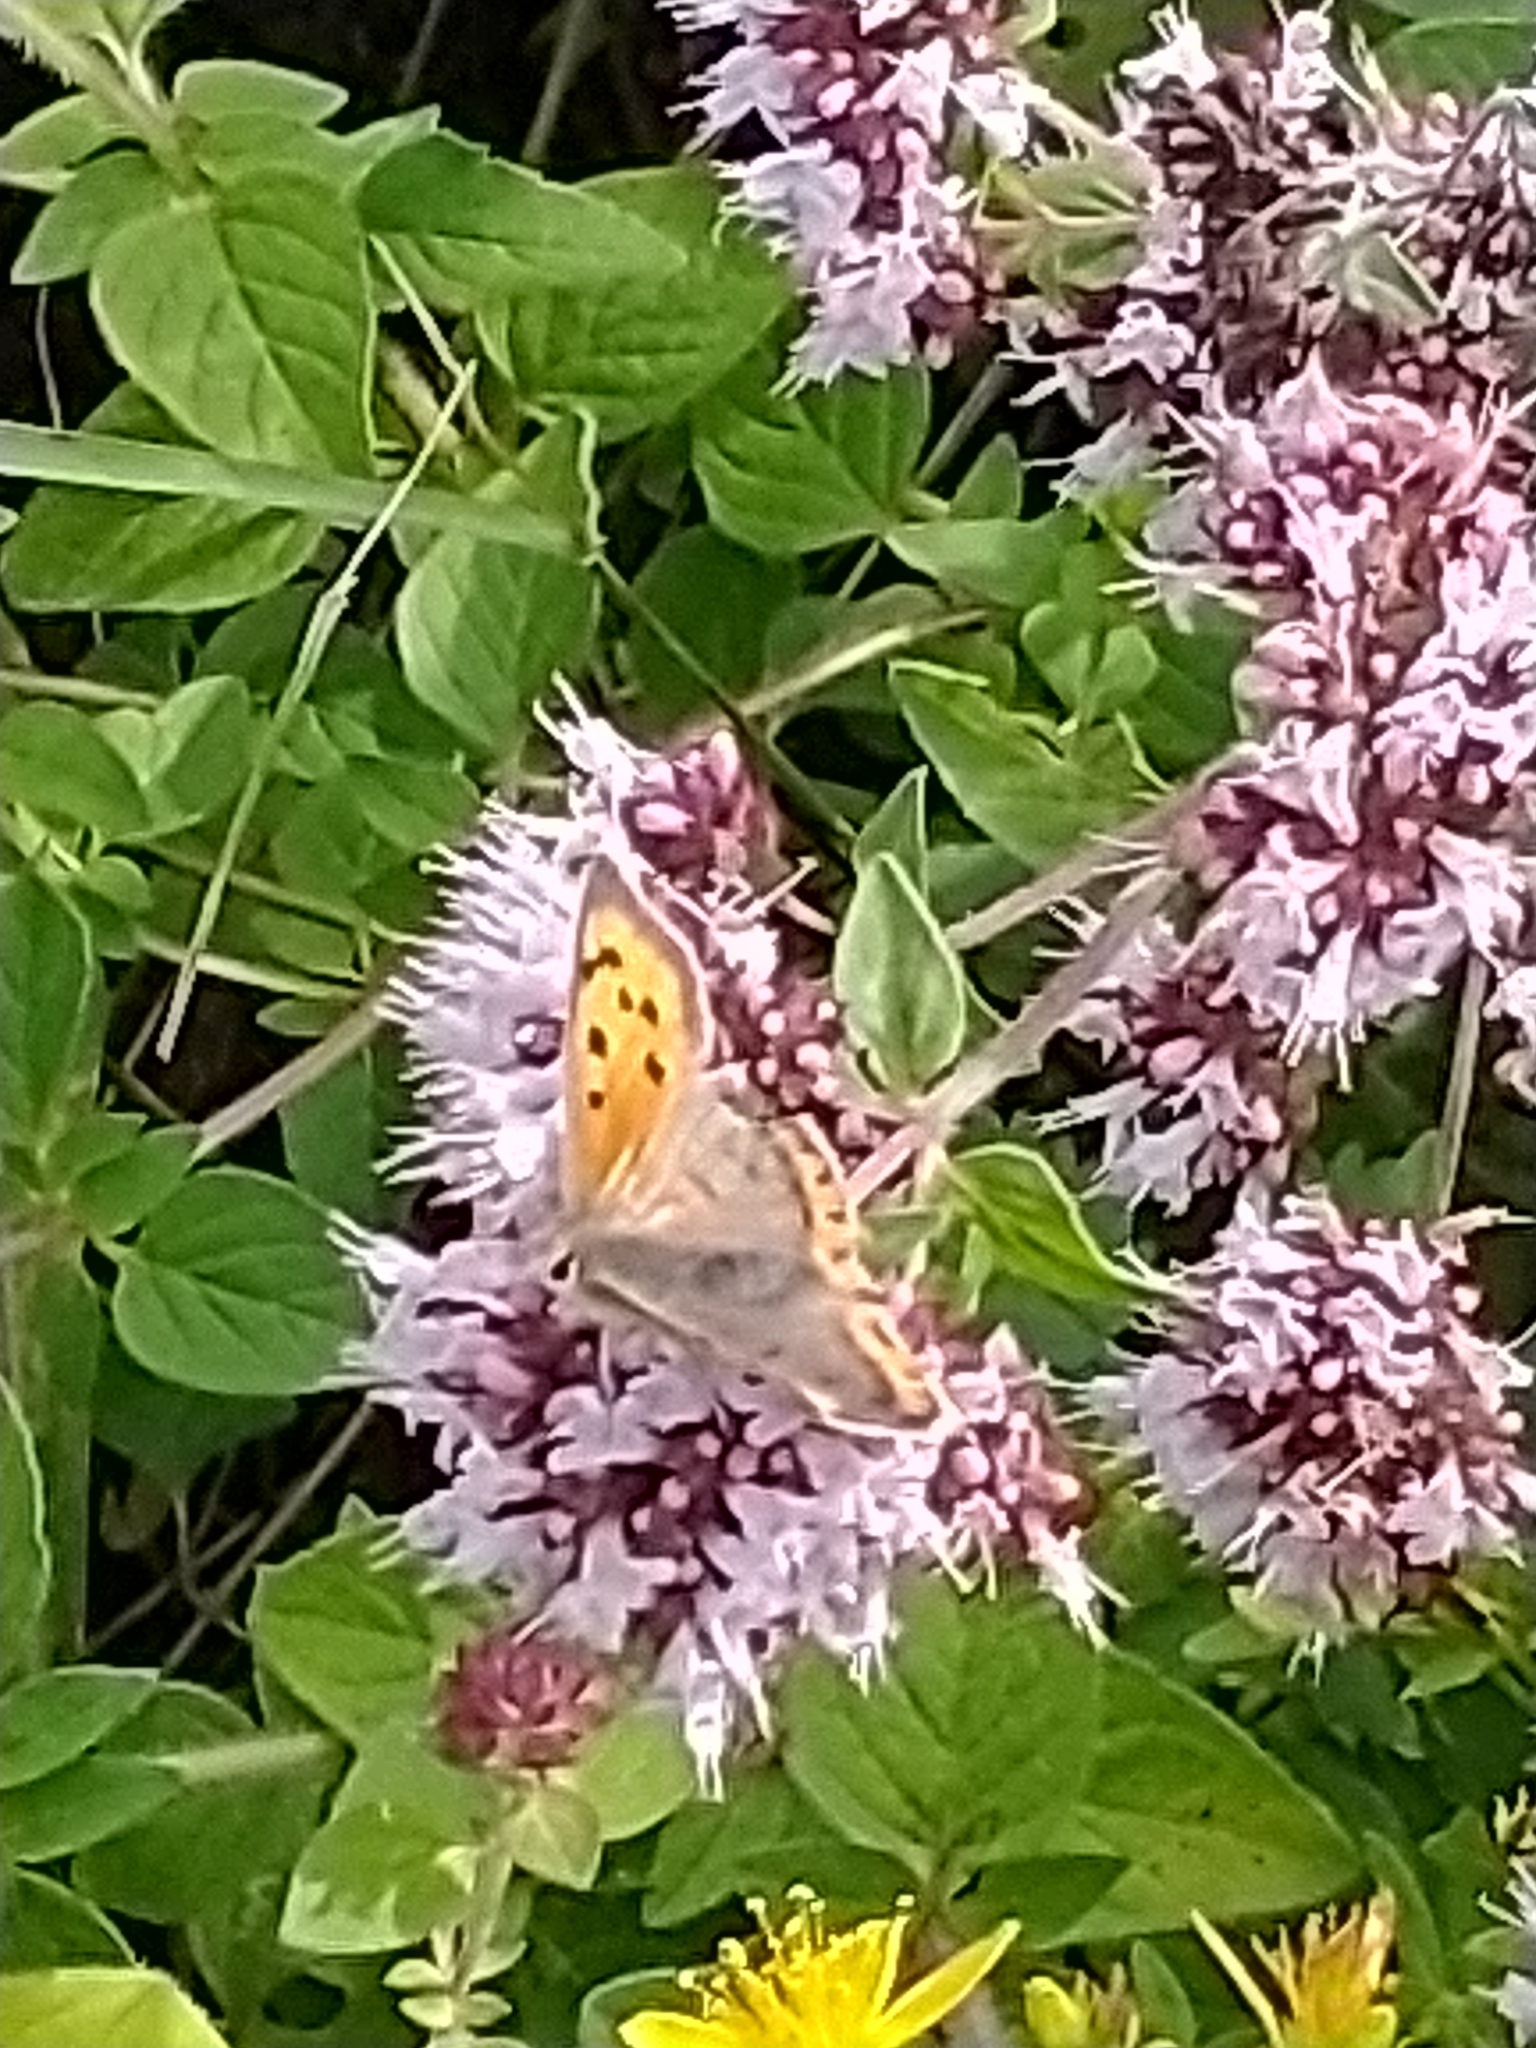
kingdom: Animalia
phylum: Arthropoda
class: Insecta
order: Lepidoptera
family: Lycaenidae
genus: Lycaena
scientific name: Lycaena phlaeas
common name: Small copper
